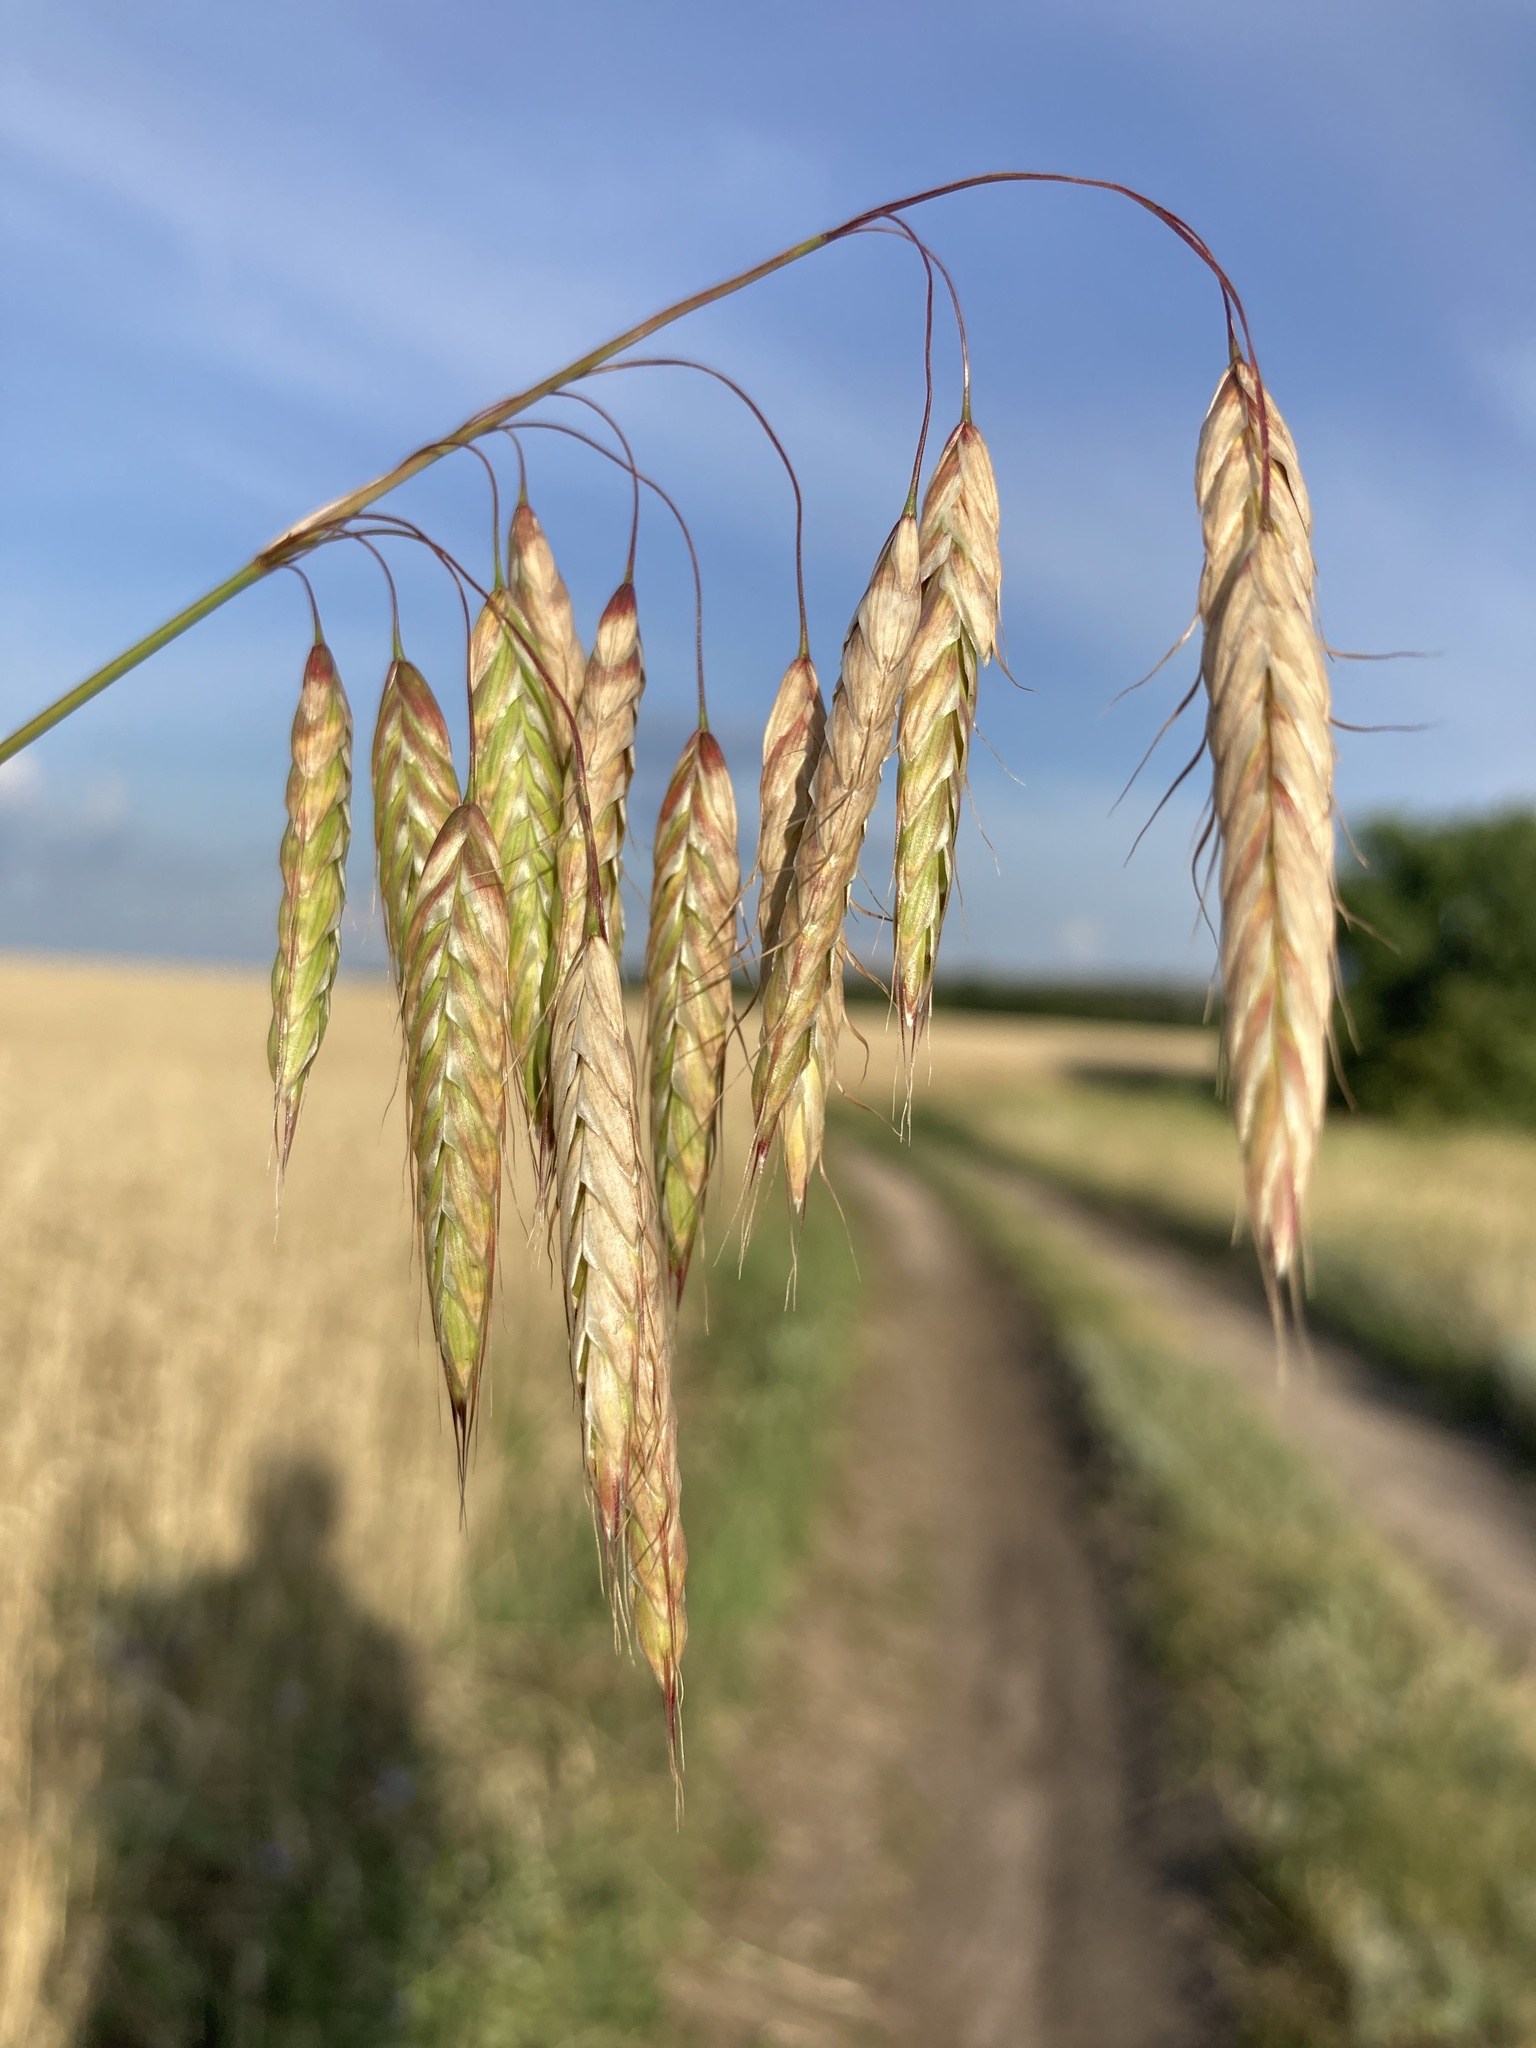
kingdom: Plantae
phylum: Tracheophyta
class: Liliopsida
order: Poales
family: Poaceae
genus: Bromus
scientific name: Bromus squarrosus
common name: Corn brome
